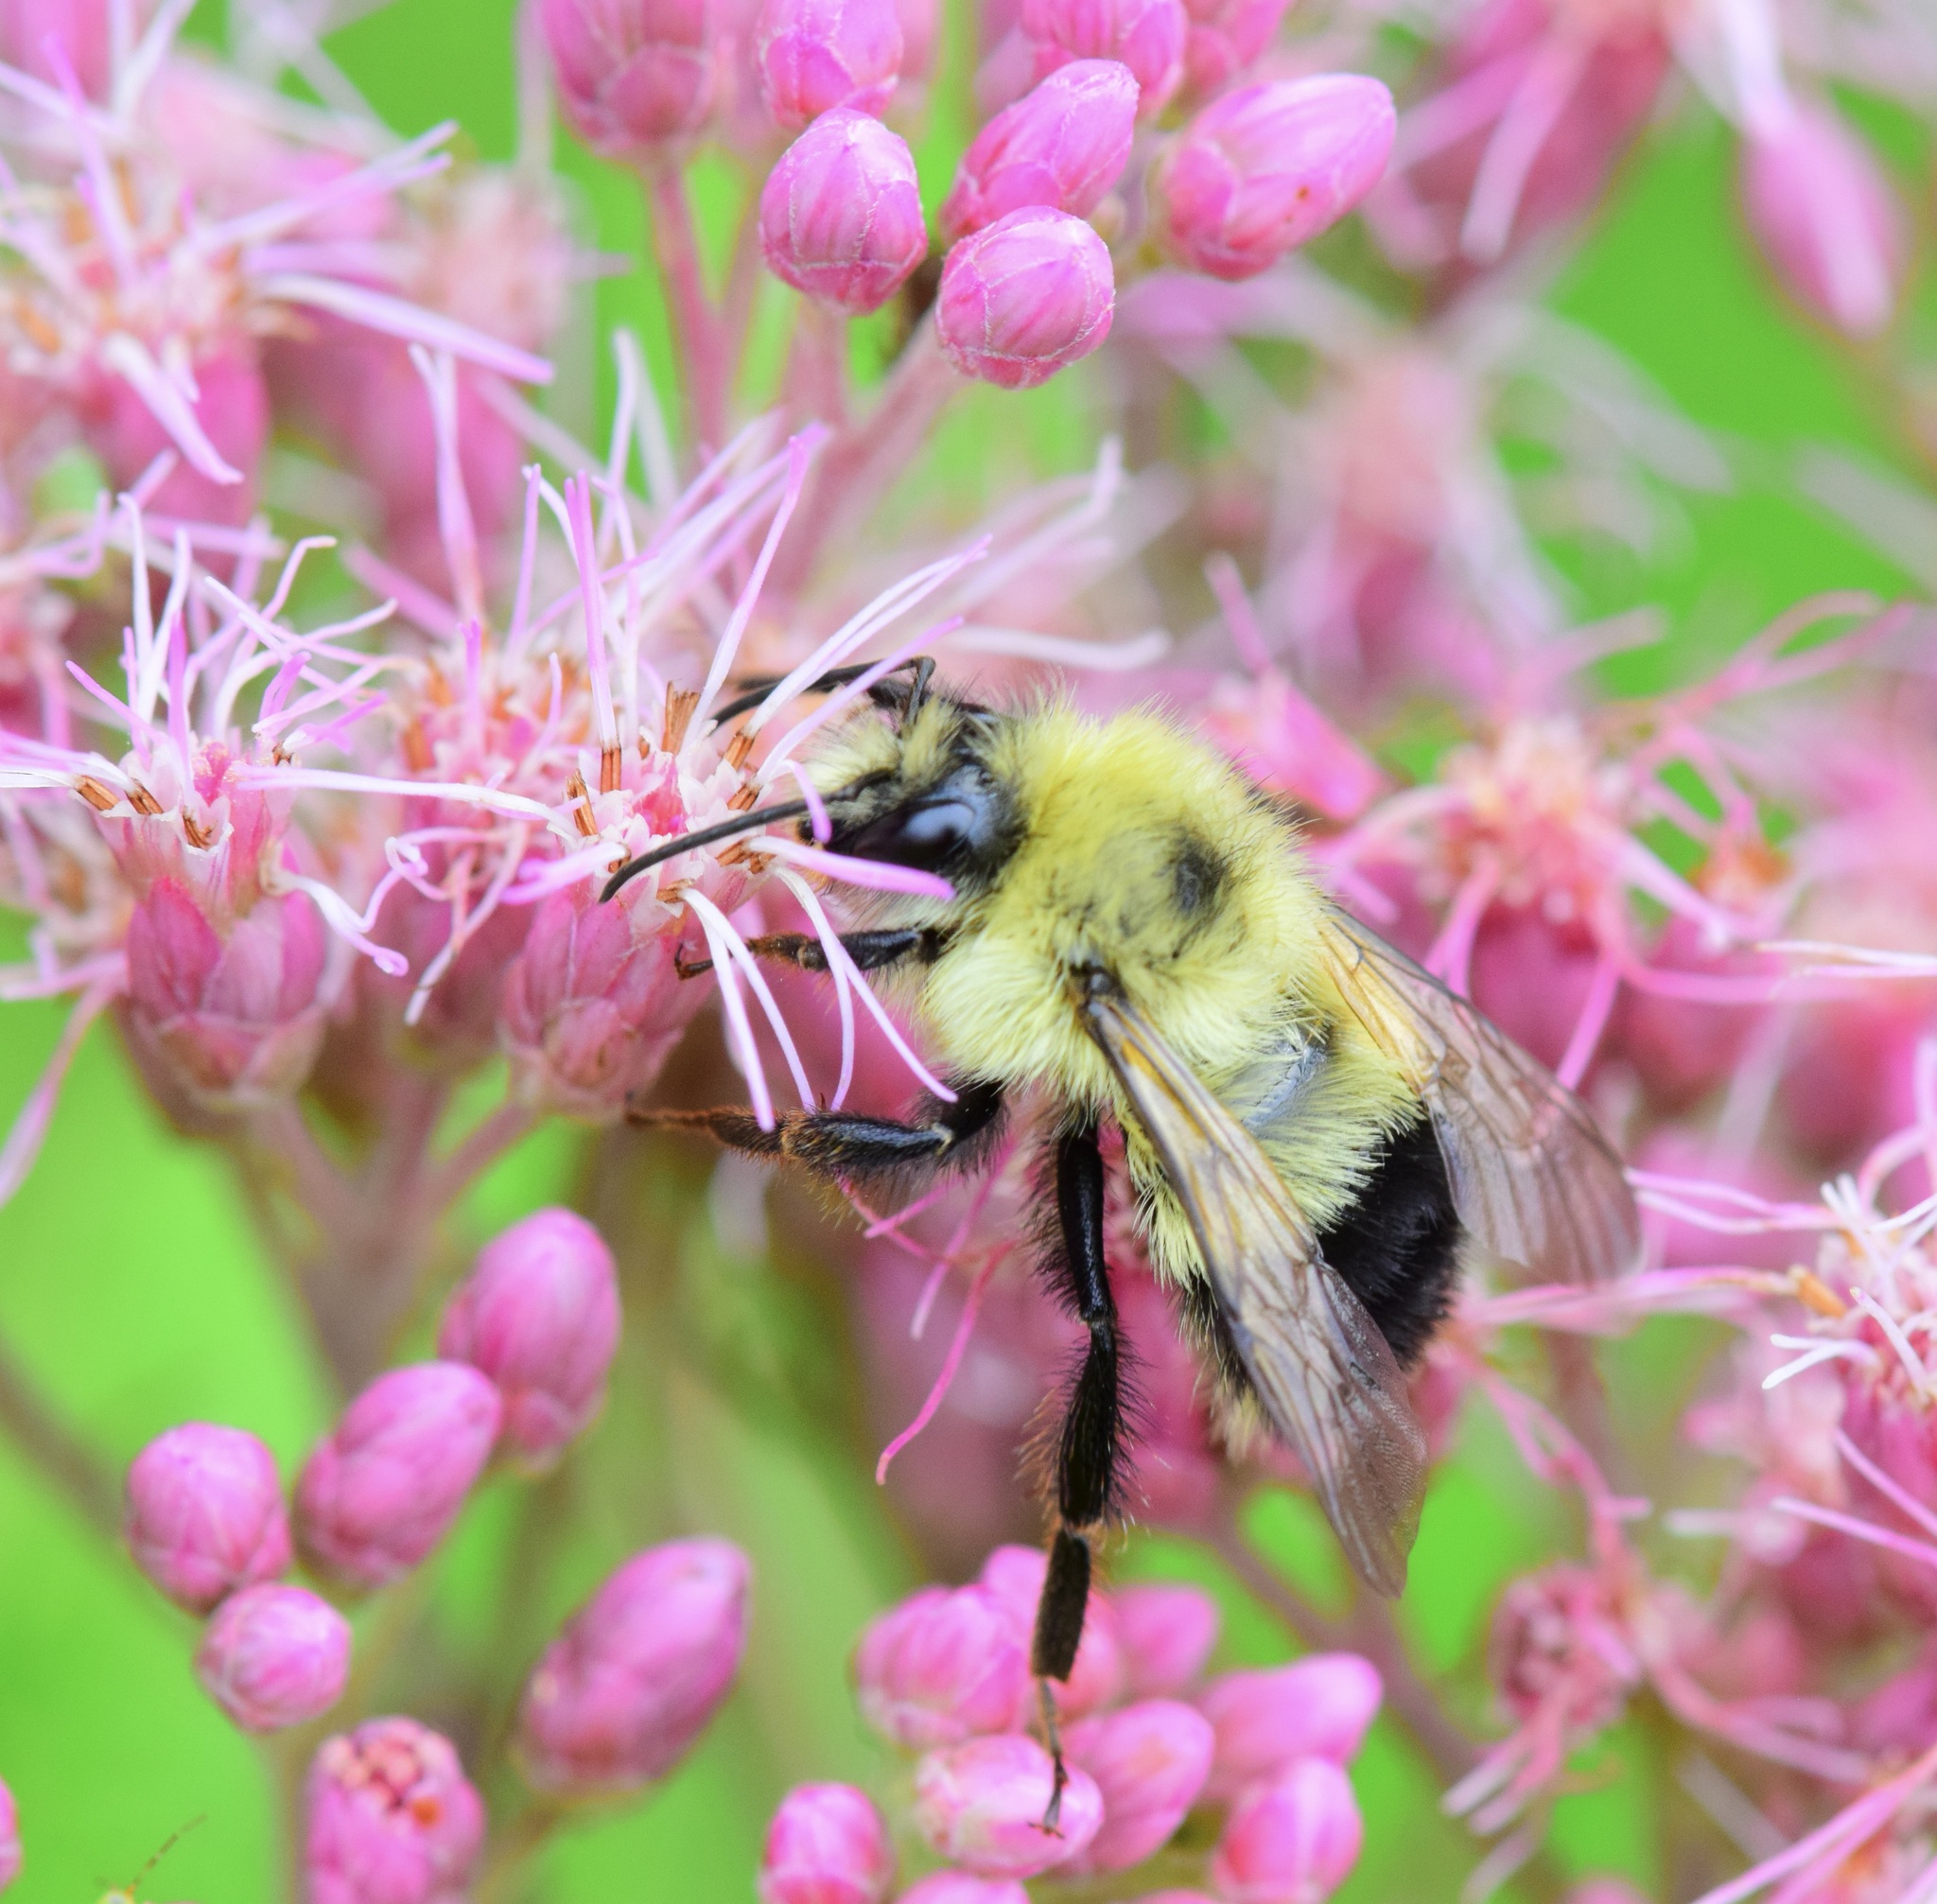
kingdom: Animalia
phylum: Arthropoda
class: Insecta
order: Hymenoptera
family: Apidae
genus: Bombus
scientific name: Bombus vagans
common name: Half-black bumble bee
